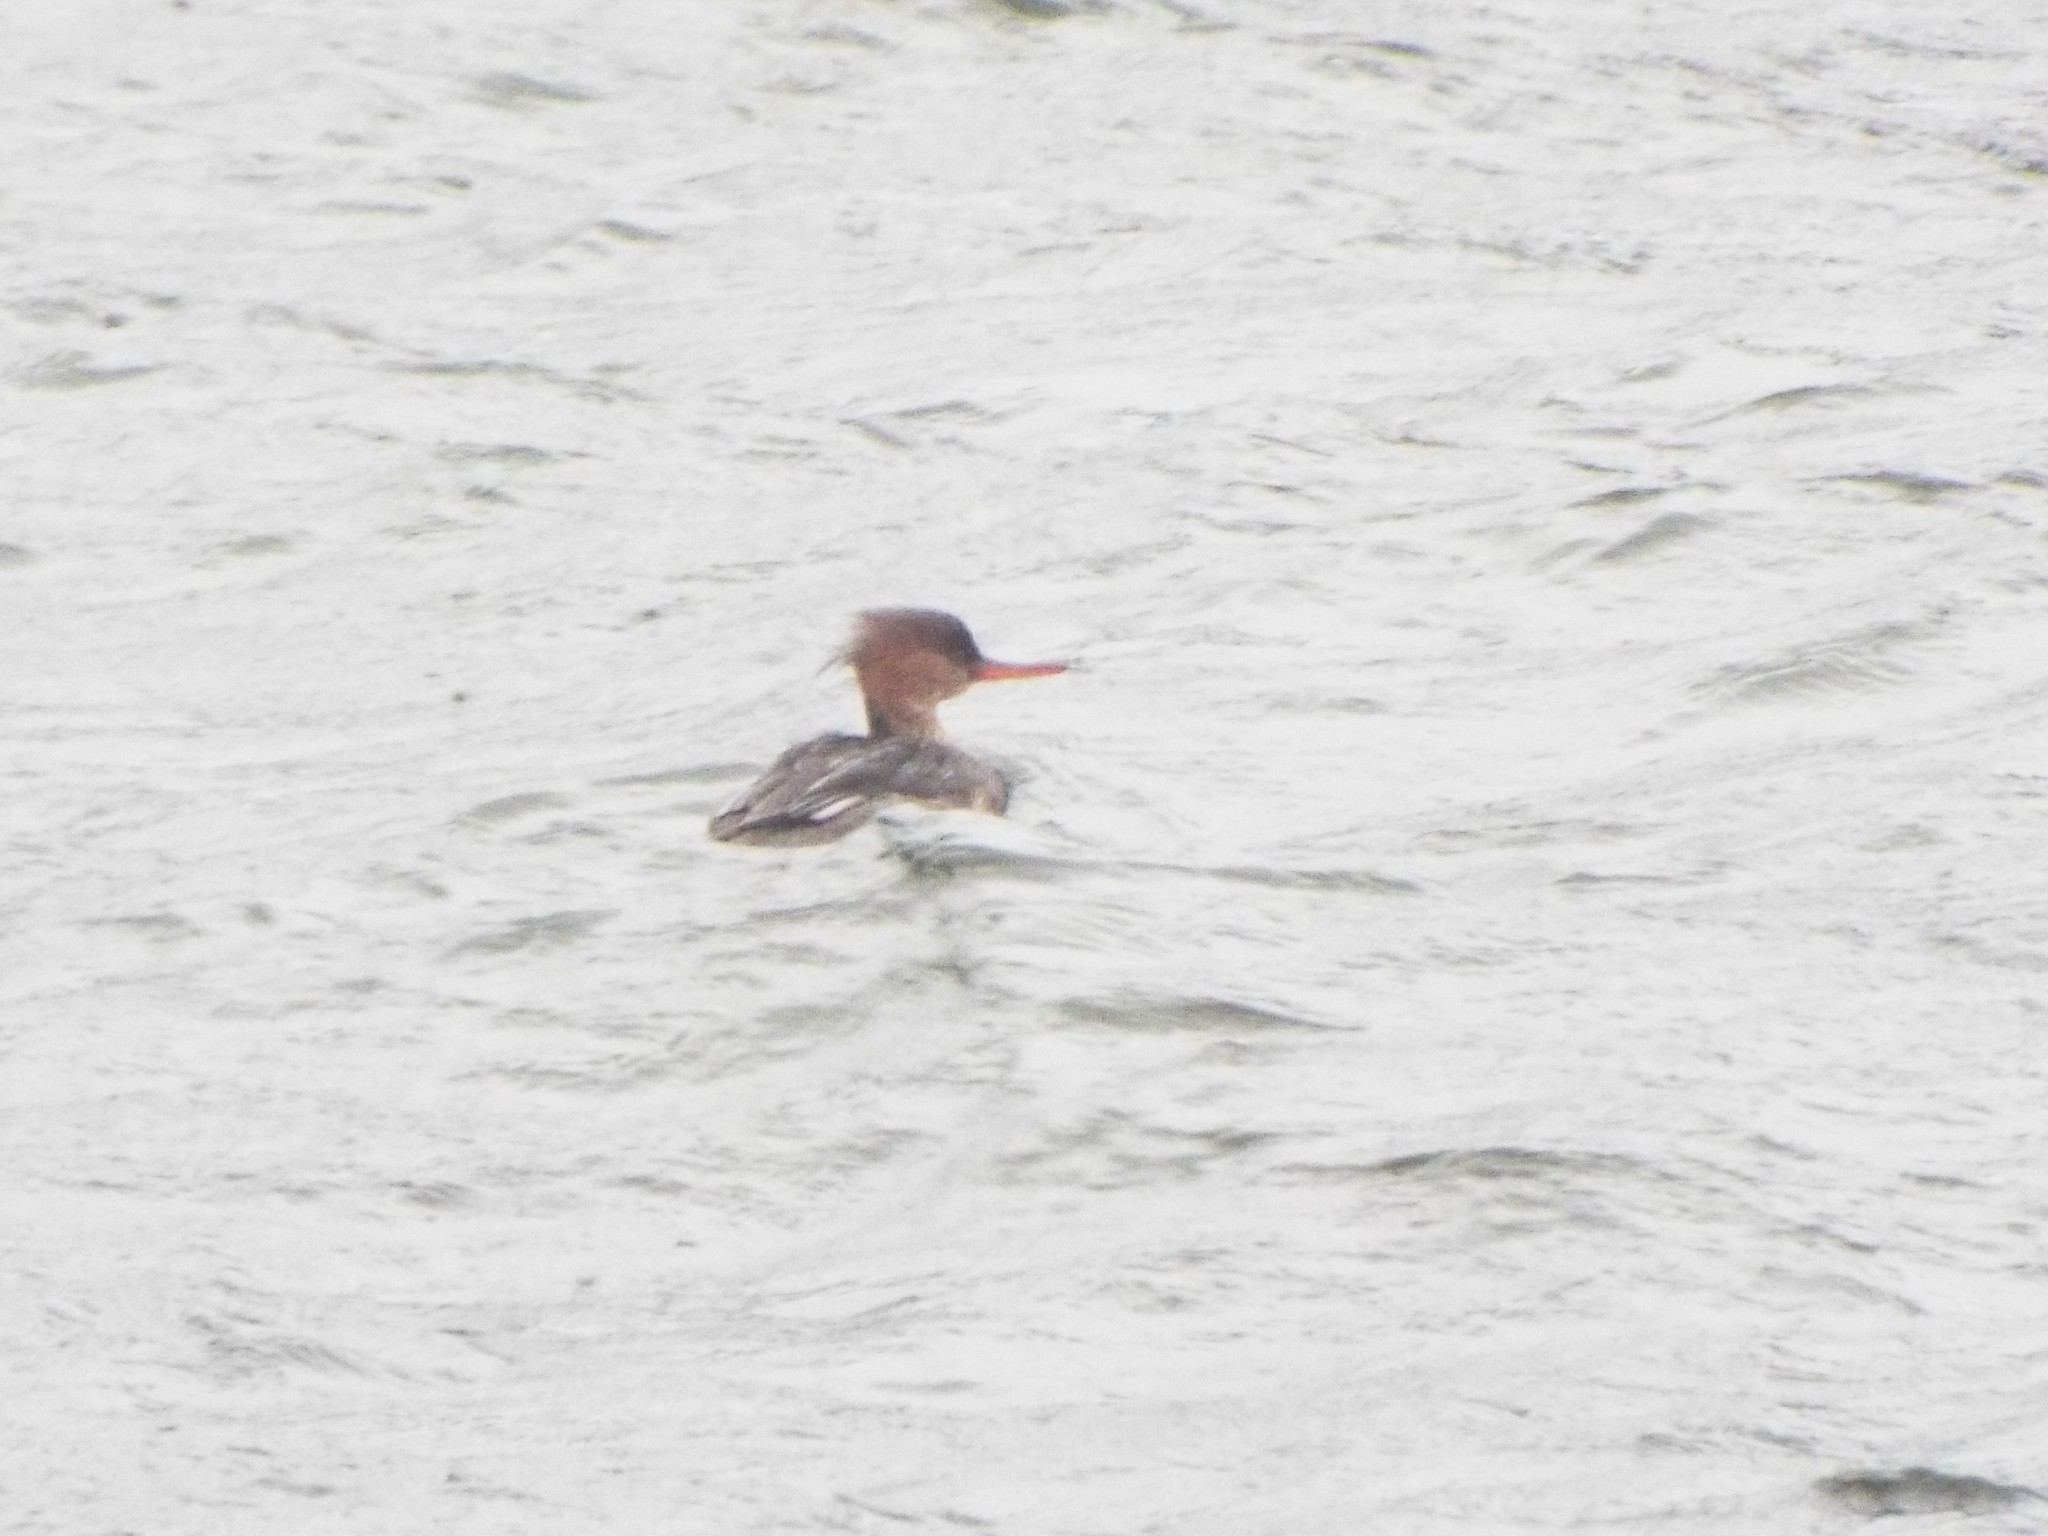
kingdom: Animalia
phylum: Chordata
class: Aves
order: Anseriformes
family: Anatidae
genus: Mergus
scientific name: Mergus serrator
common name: Red-breasted merganser
